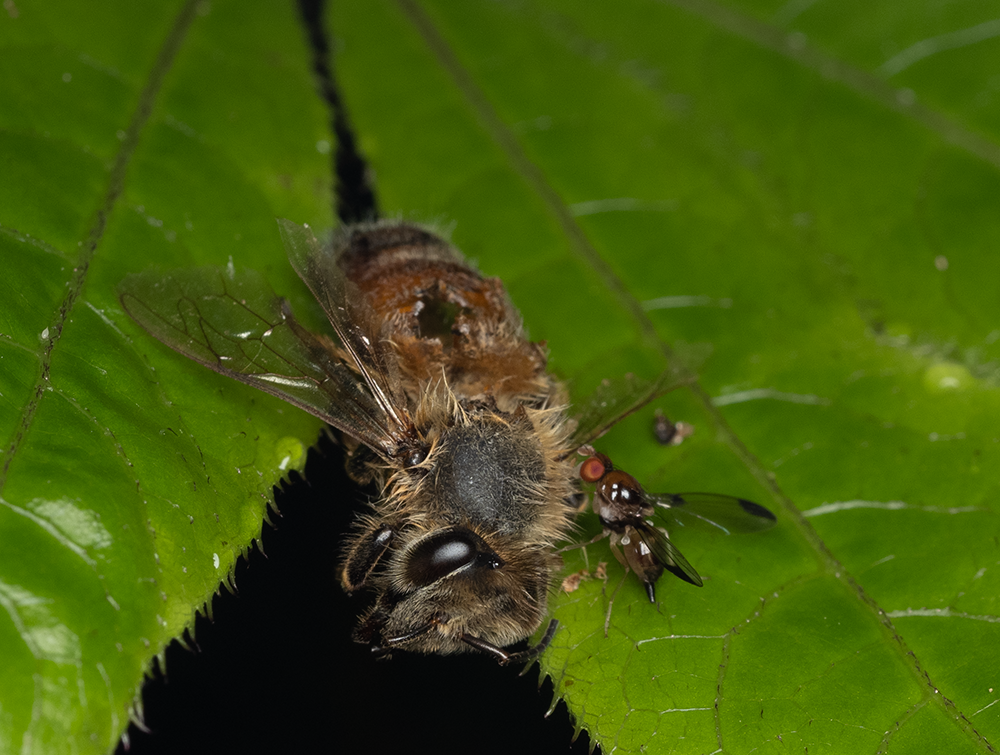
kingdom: Animalia
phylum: Arthropoda
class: Insecta
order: Diptera
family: Pallopteridae
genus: Neomaorina
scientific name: Neomaorina bimacula
